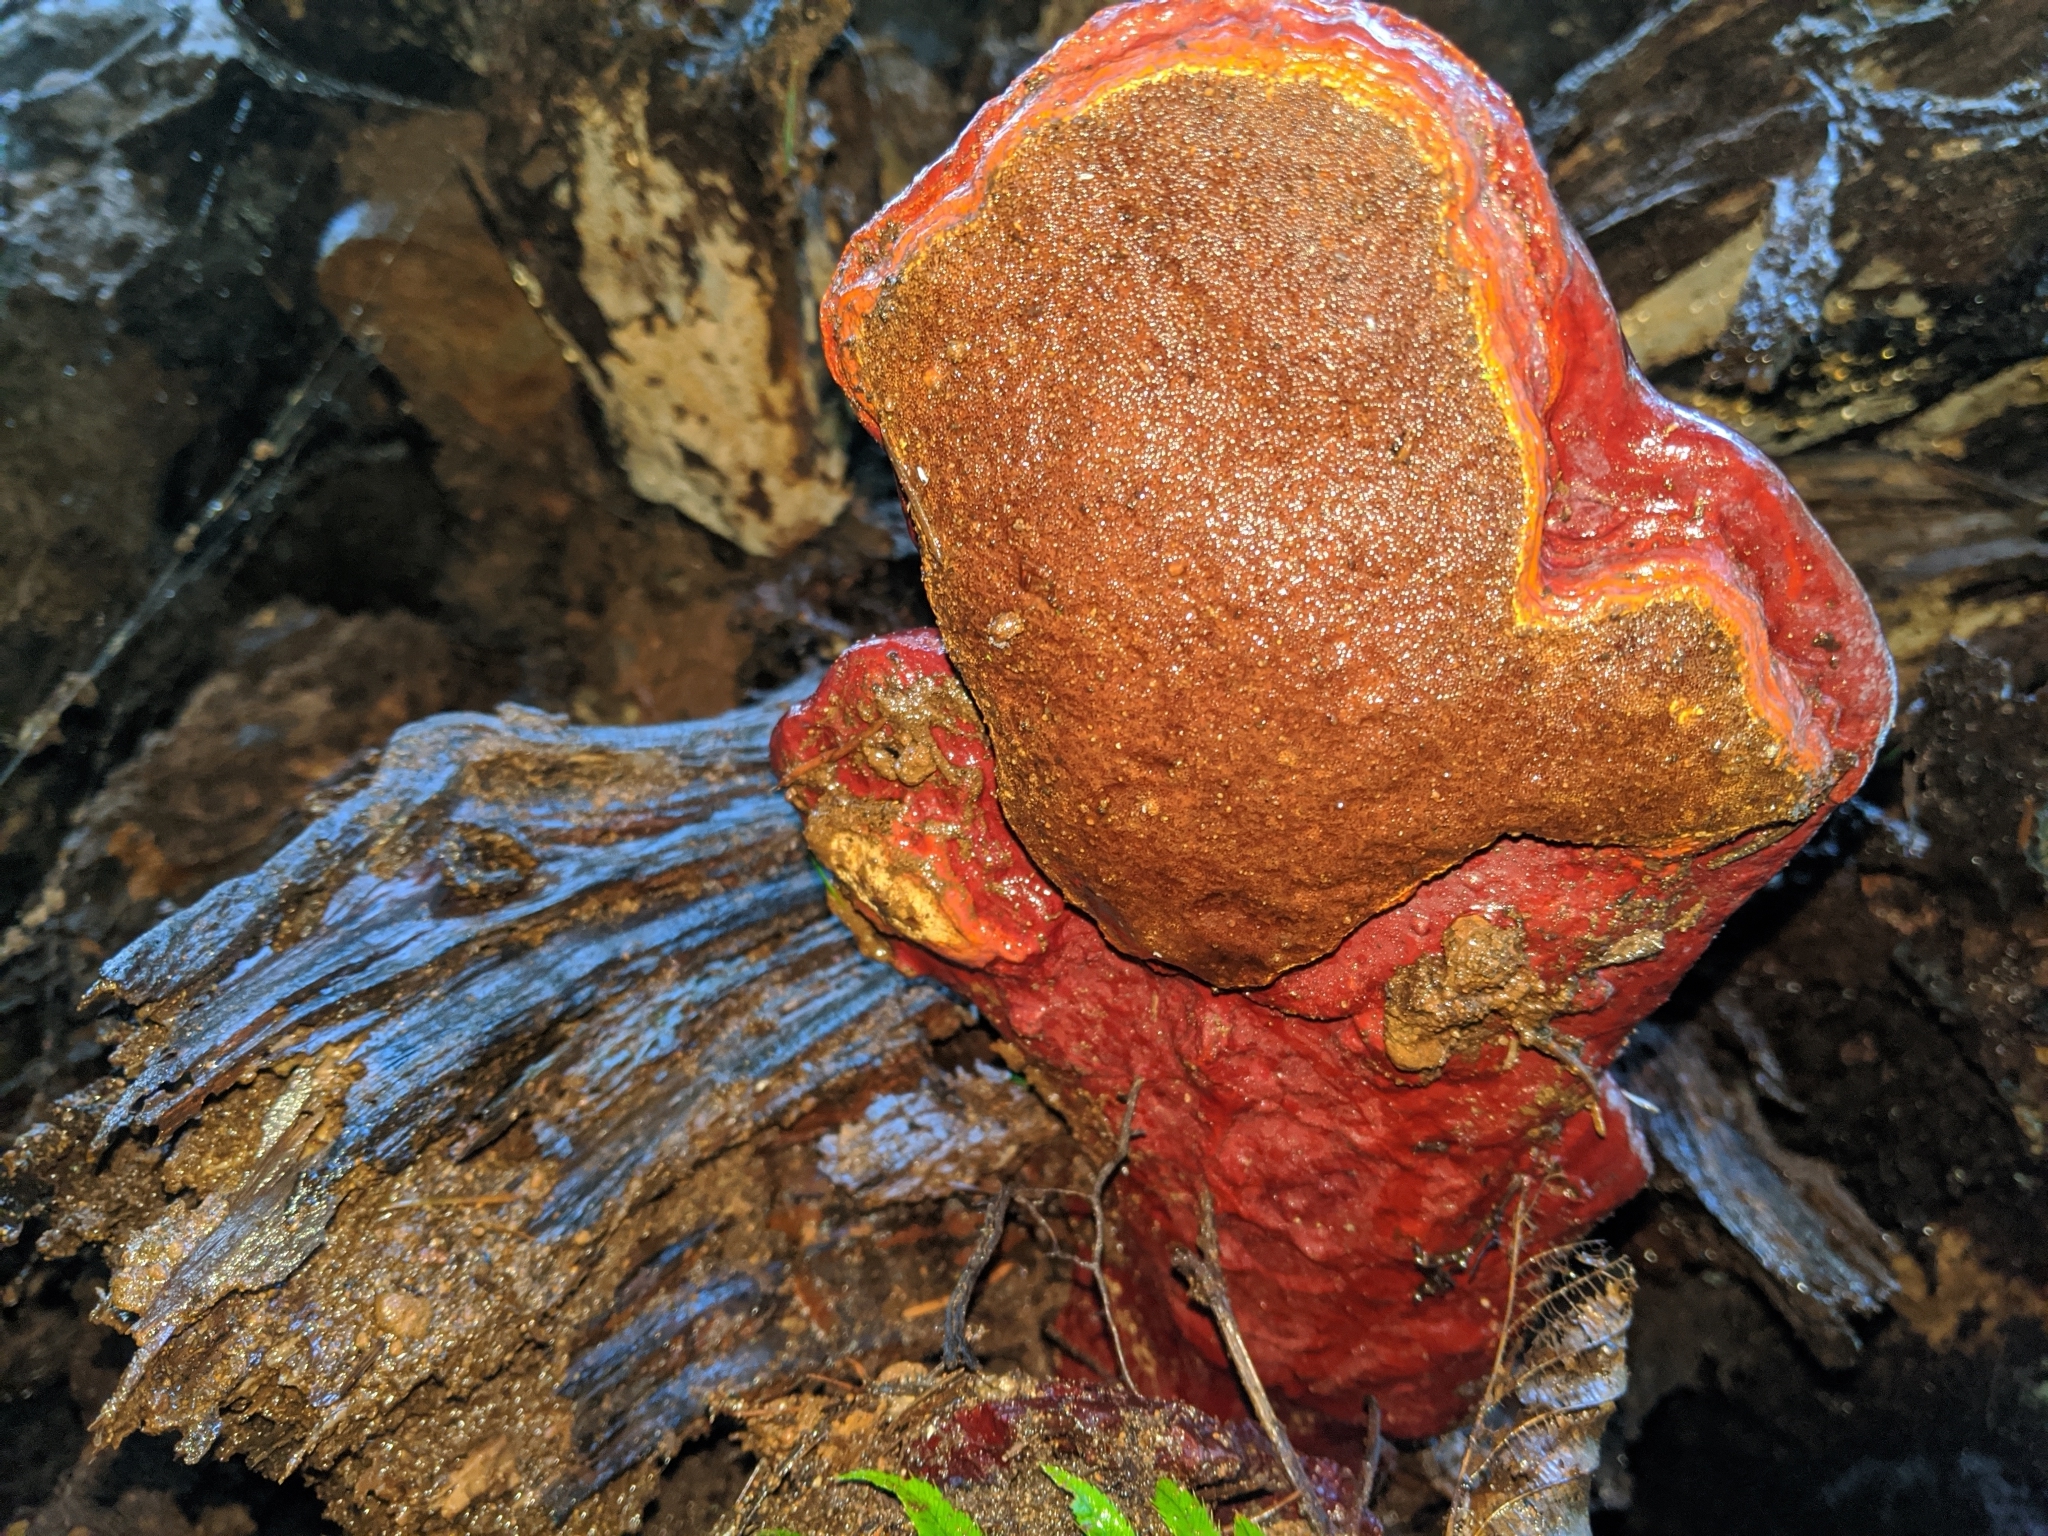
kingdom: Fungi
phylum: Basidiomycota
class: Agaricomycetes
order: Polyporales
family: Polyporaceae
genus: Ganoderma
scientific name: Ganoderma oregonense
